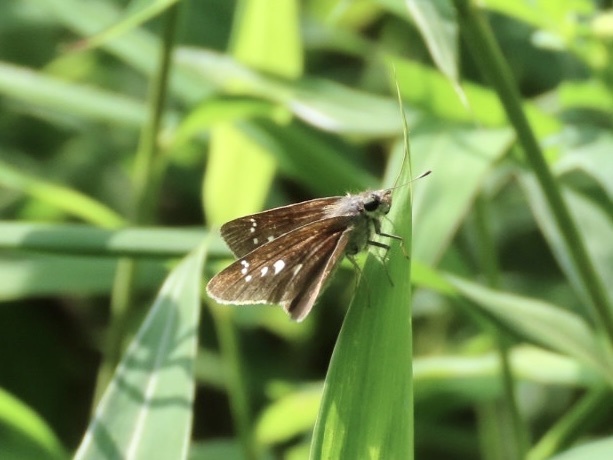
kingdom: Animalia
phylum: Arthropoda
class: Insecta
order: Lepidoptera
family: Hesperiidae
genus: Borbo
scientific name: Borbo cinnara
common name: Formosan swift
